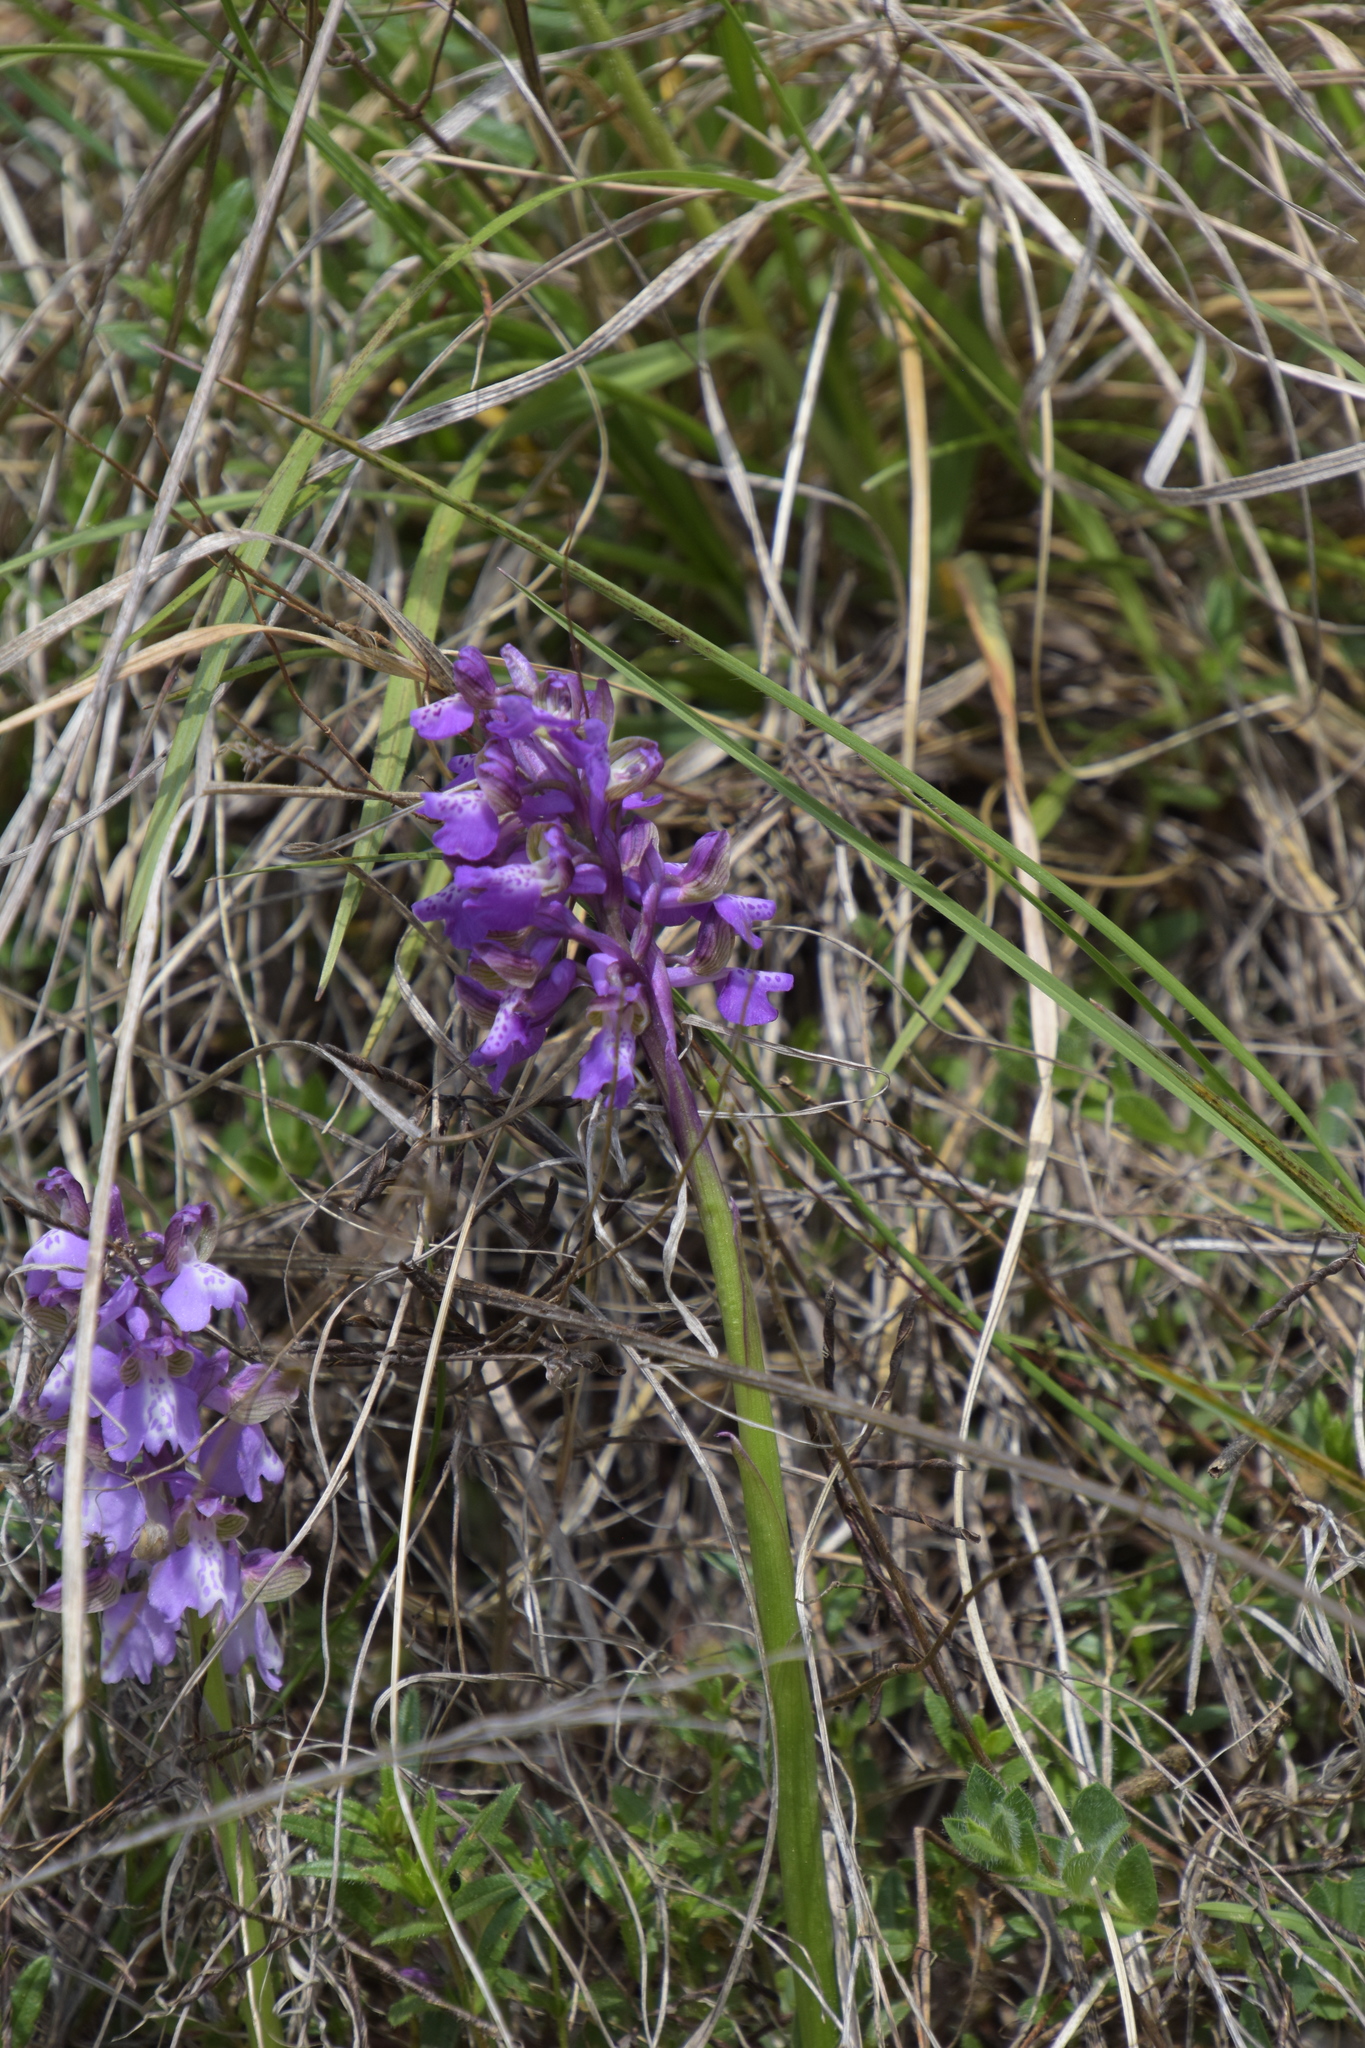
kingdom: Plantae
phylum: Tracheophyta
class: Liliopsida
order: Asparagales
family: Orchidaceae
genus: Anacamptis
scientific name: Anacamptis morio
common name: Green-winged orchid
